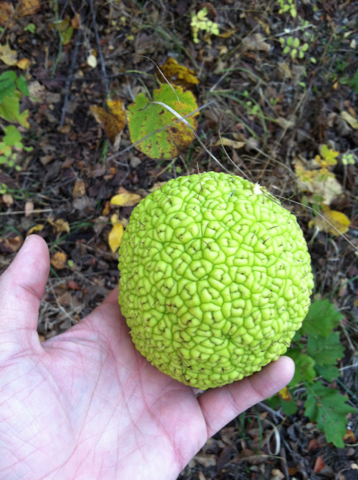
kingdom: Plantae
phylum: Tracheophyta
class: Magnoliopsida
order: Rosales
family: Moraceae
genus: Maclura
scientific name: Maclura pomifera
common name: Osage-orange
